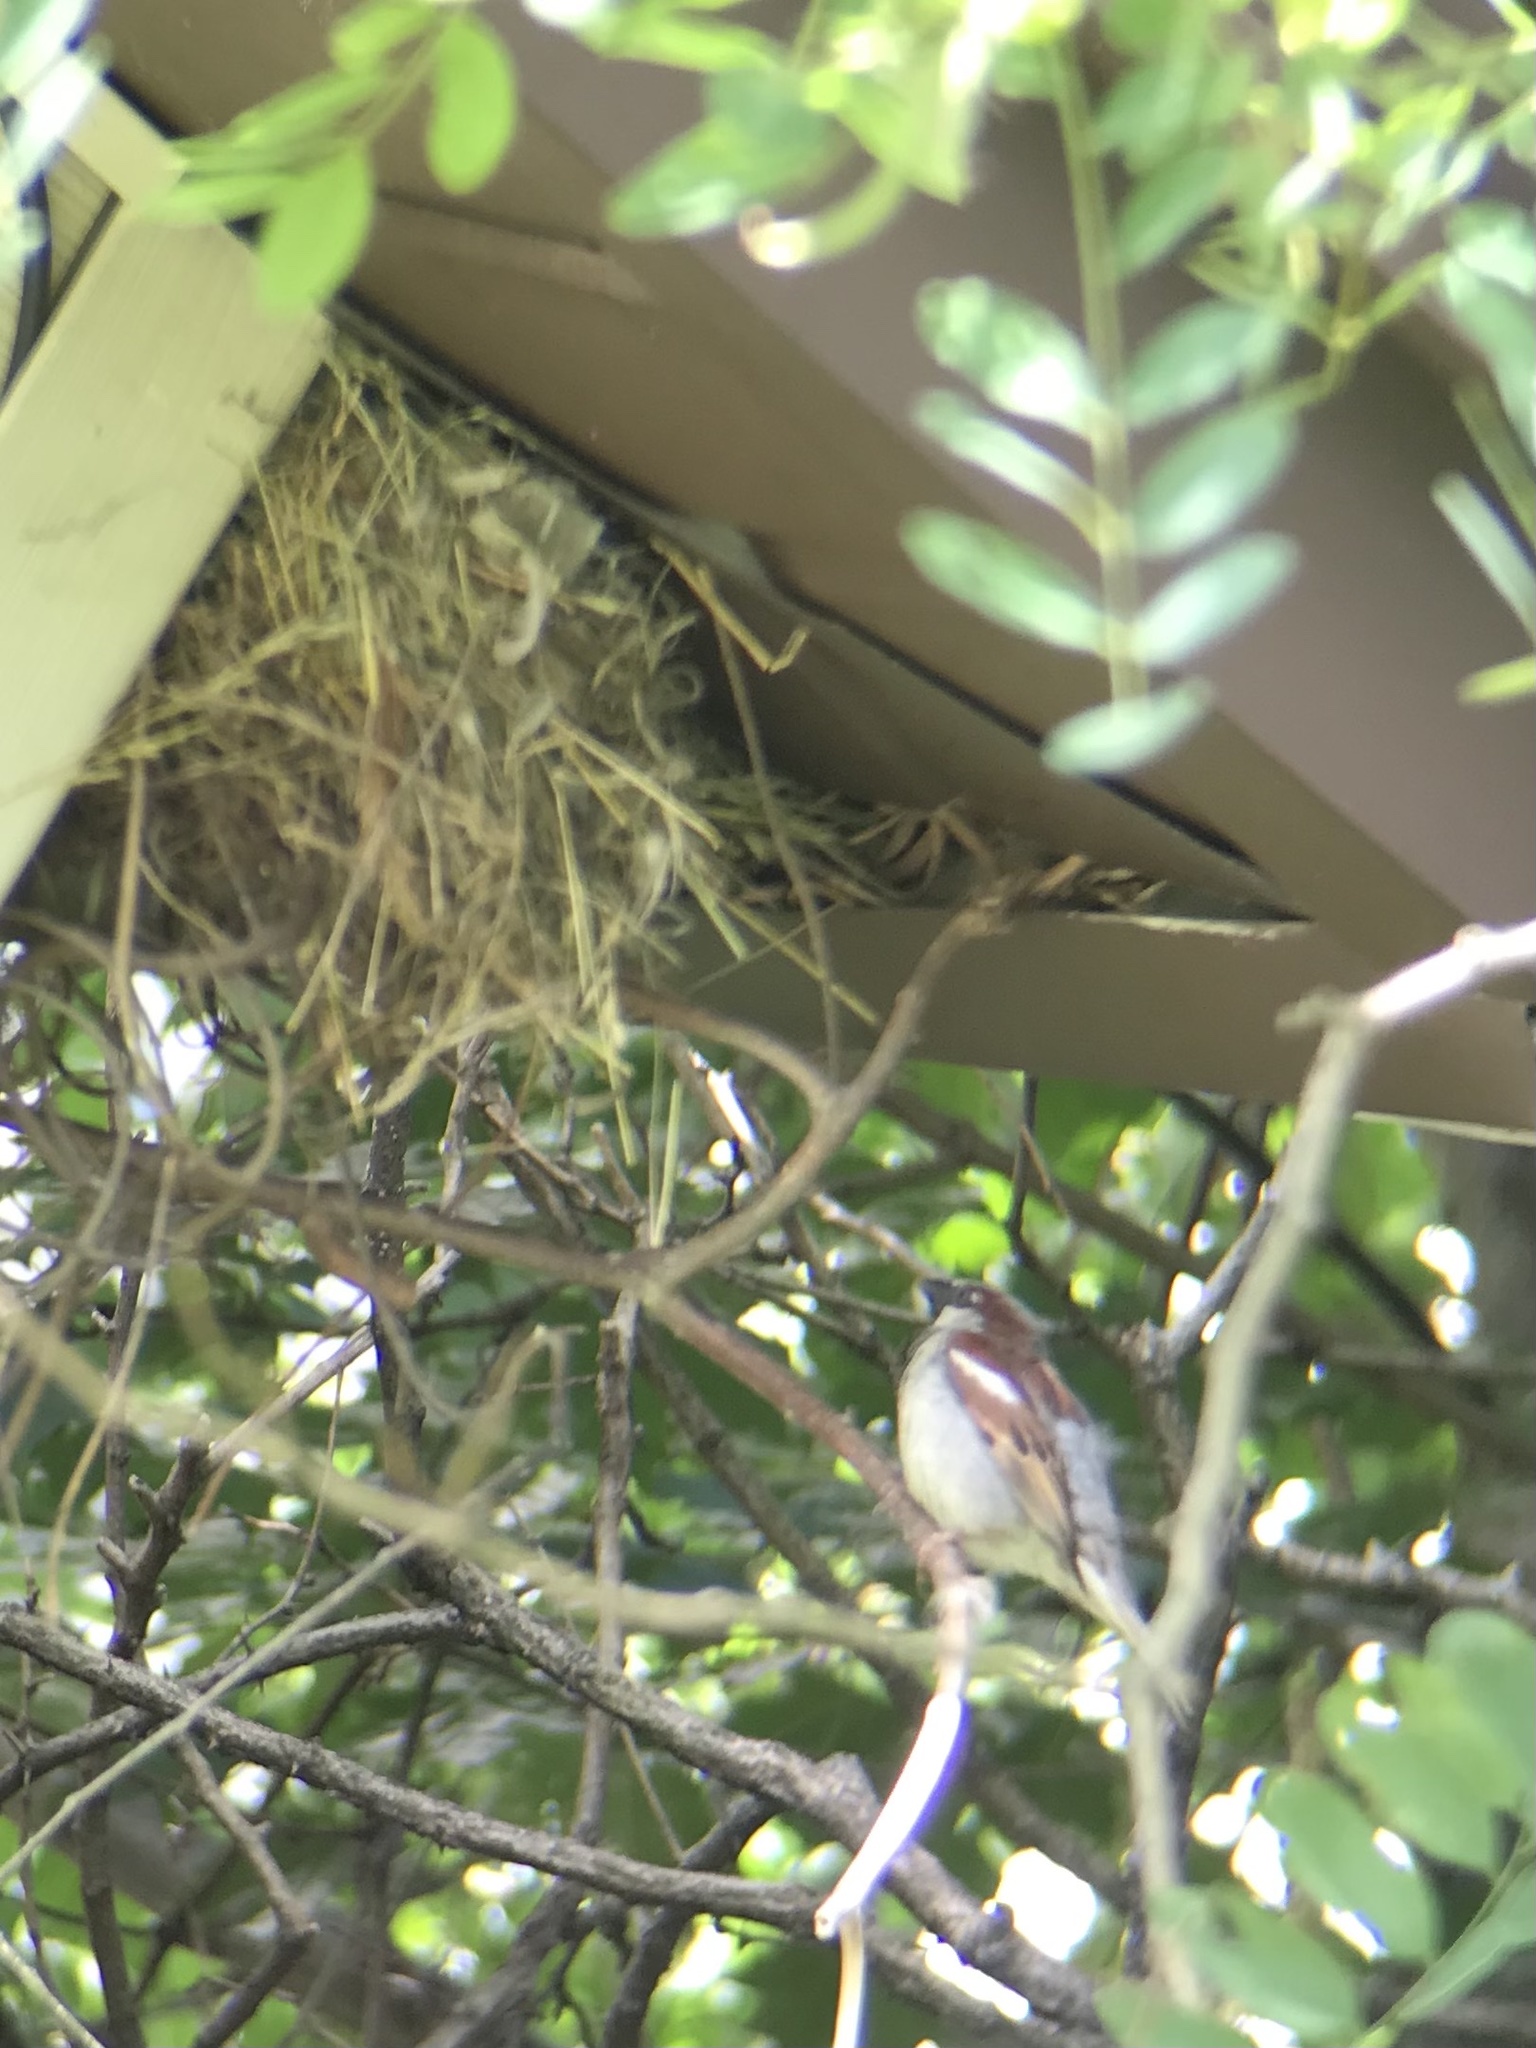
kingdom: Animalia
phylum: Chordata
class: Aves
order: Passeriformes
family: Passeridae
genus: Passer
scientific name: Passer domesticus
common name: House sparrow
